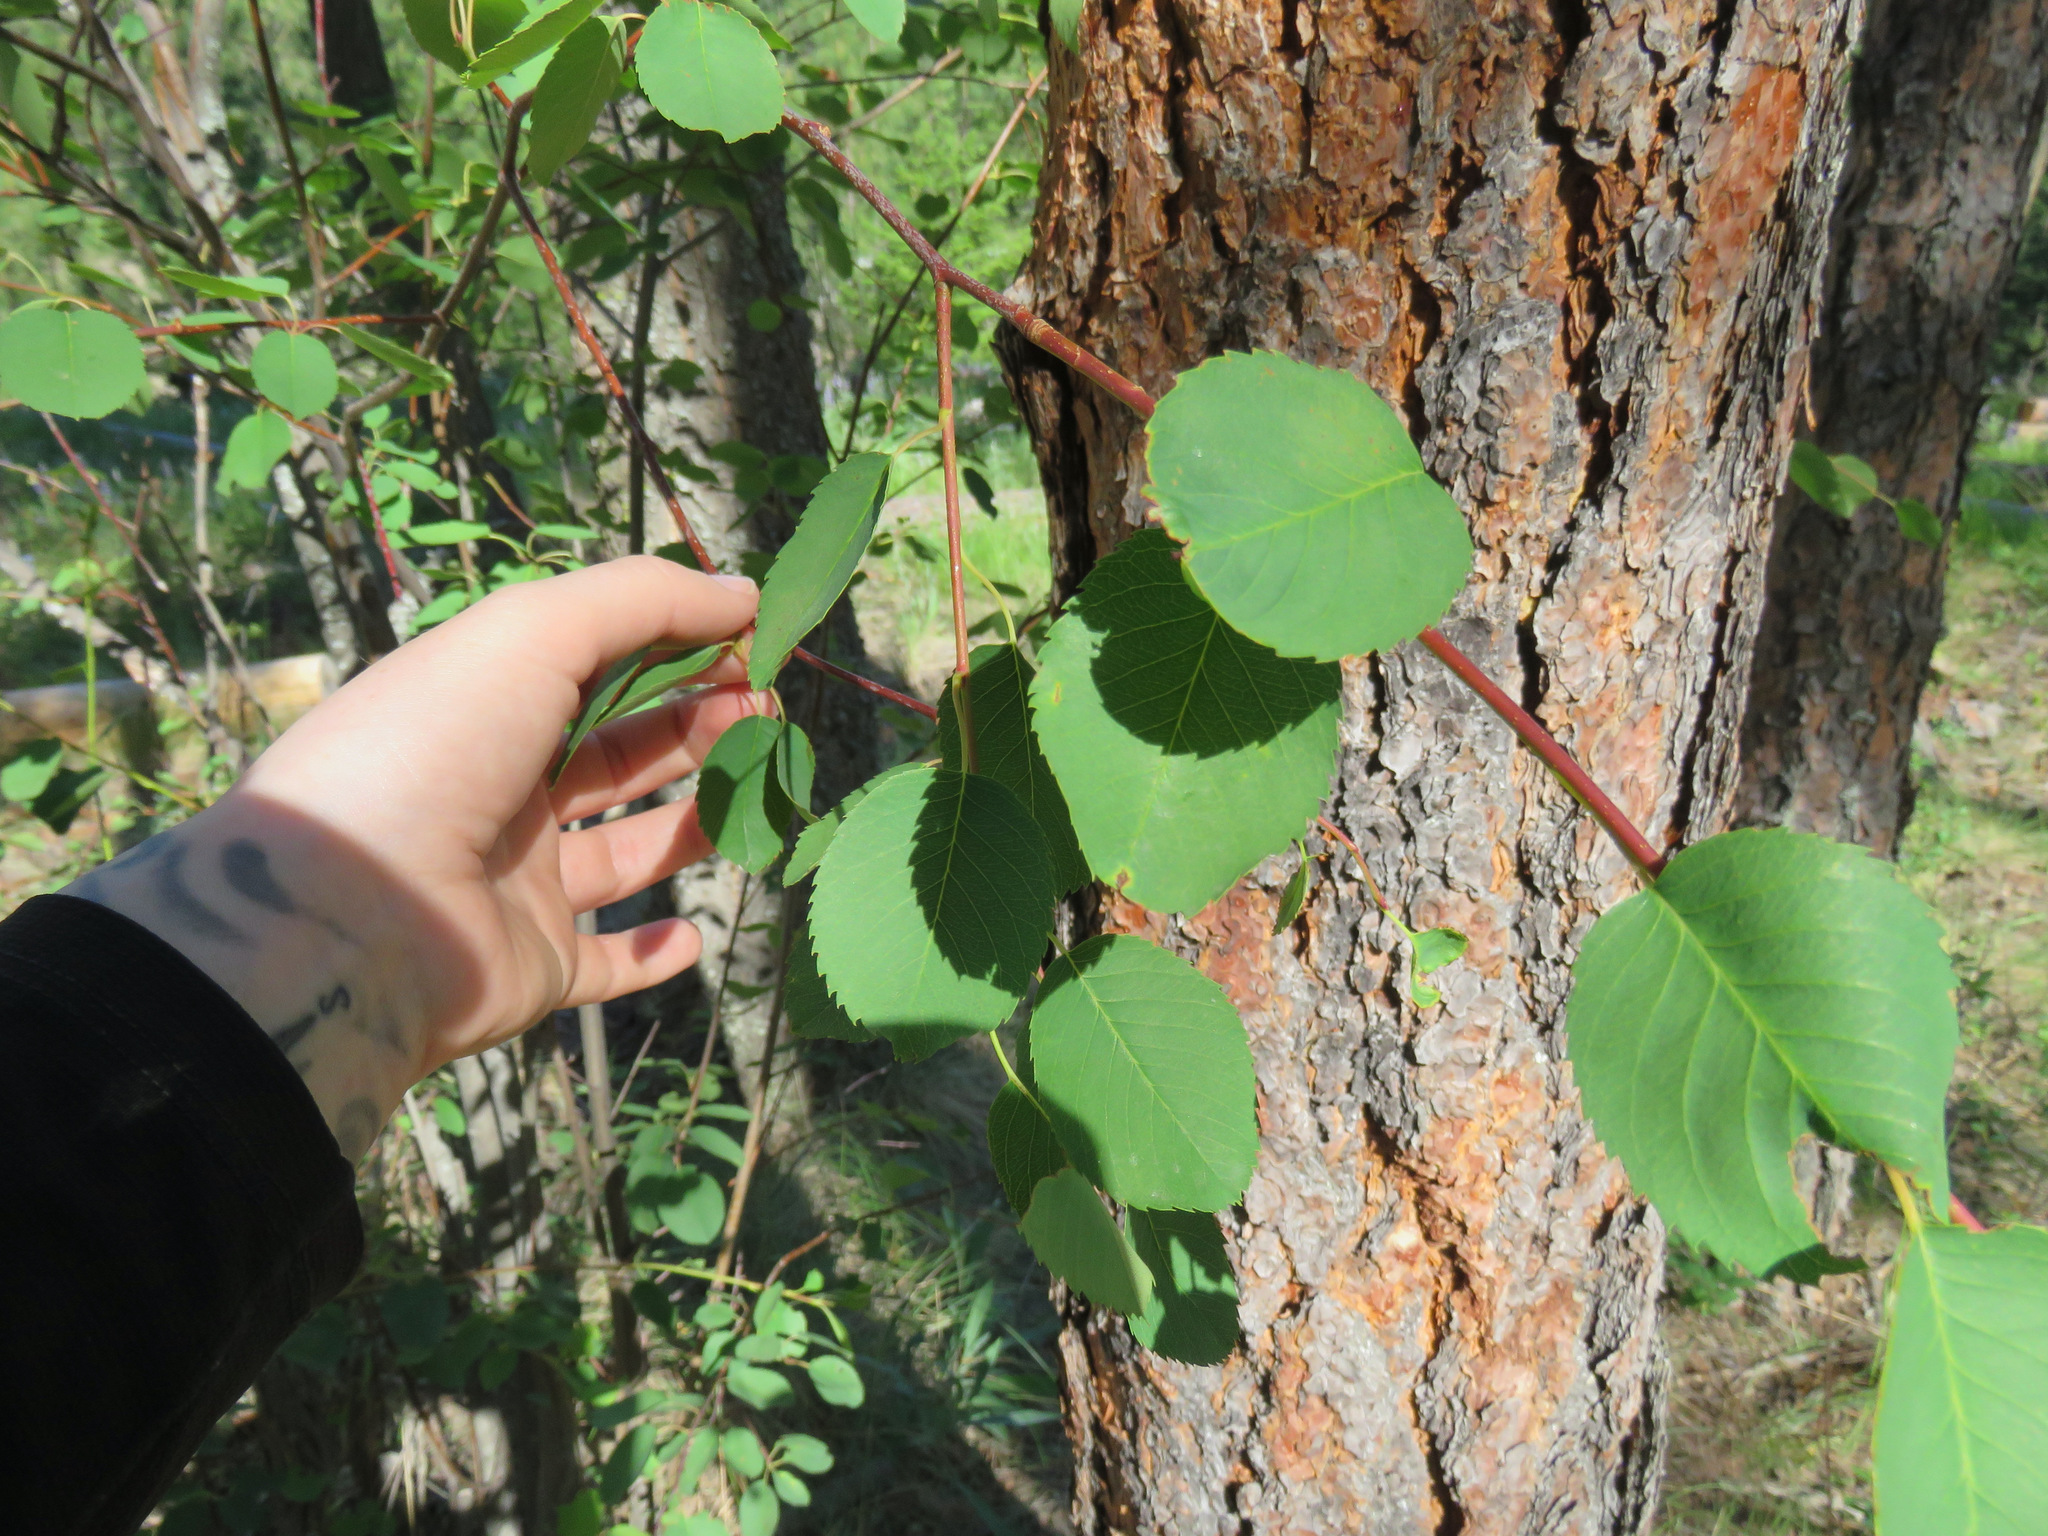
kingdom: Plantae
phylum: Tracheophyta
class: Magnoliopsida
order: Rosales
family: Rosaceae
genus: Amelanchier
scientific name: Amelanchier alnifolia
